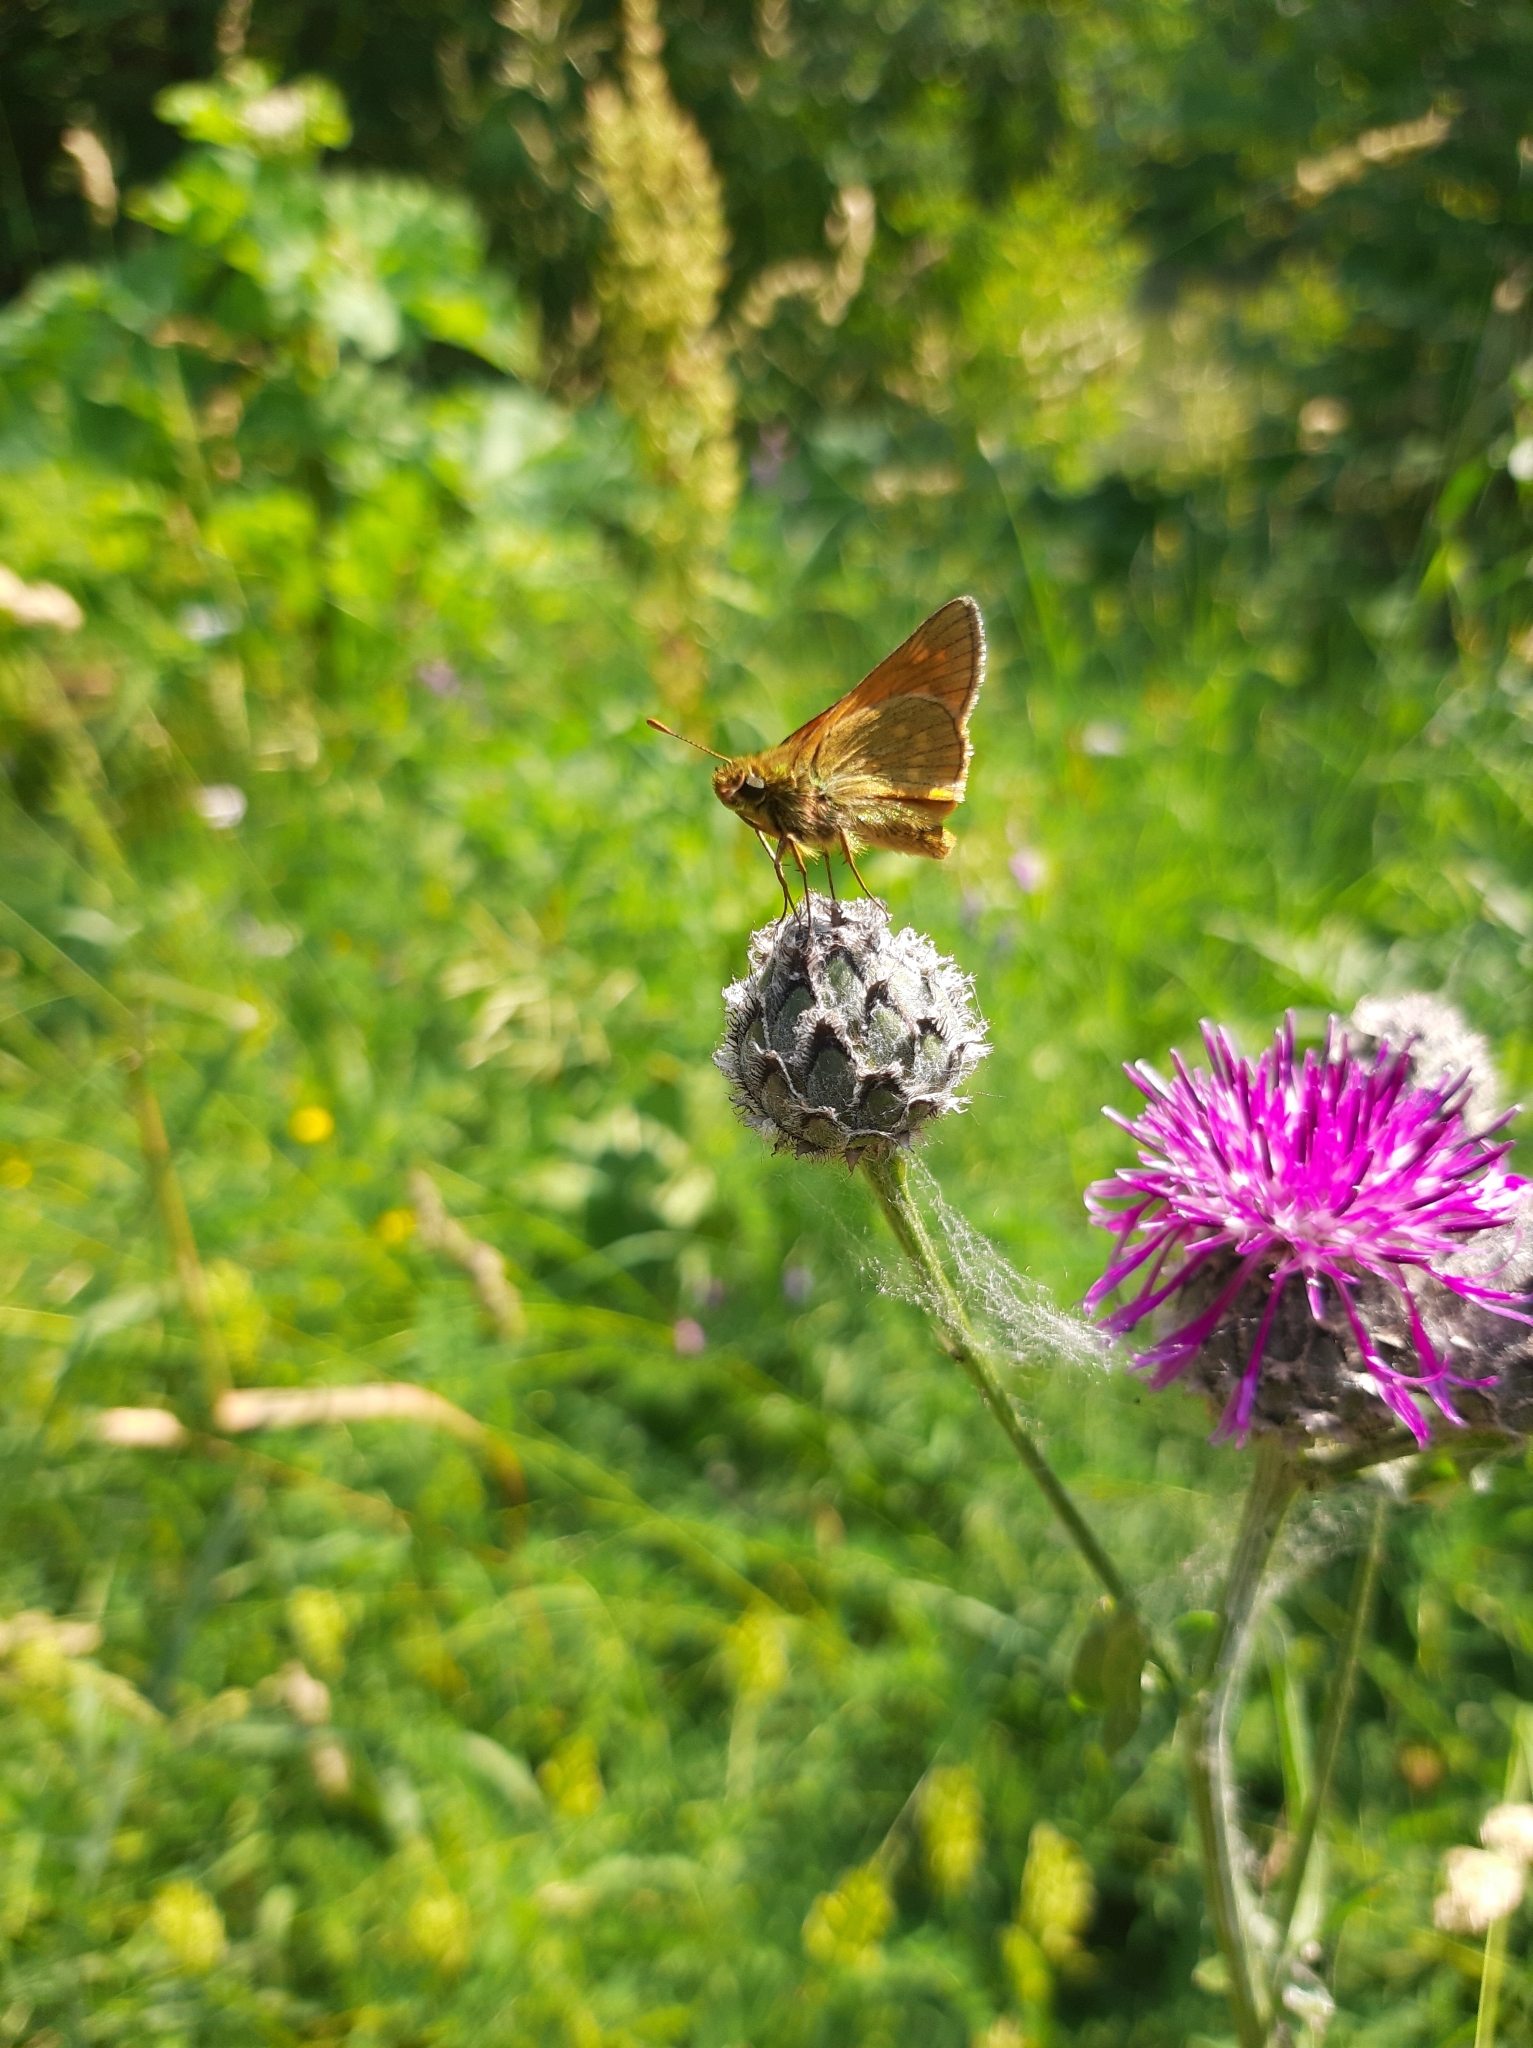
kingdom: Animalia
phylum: Arthropoda
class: Insecta
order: Lepidoptera
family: Hesperiidae
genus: Ochlodes
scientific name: Ochlodes venata
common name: Large skipper
